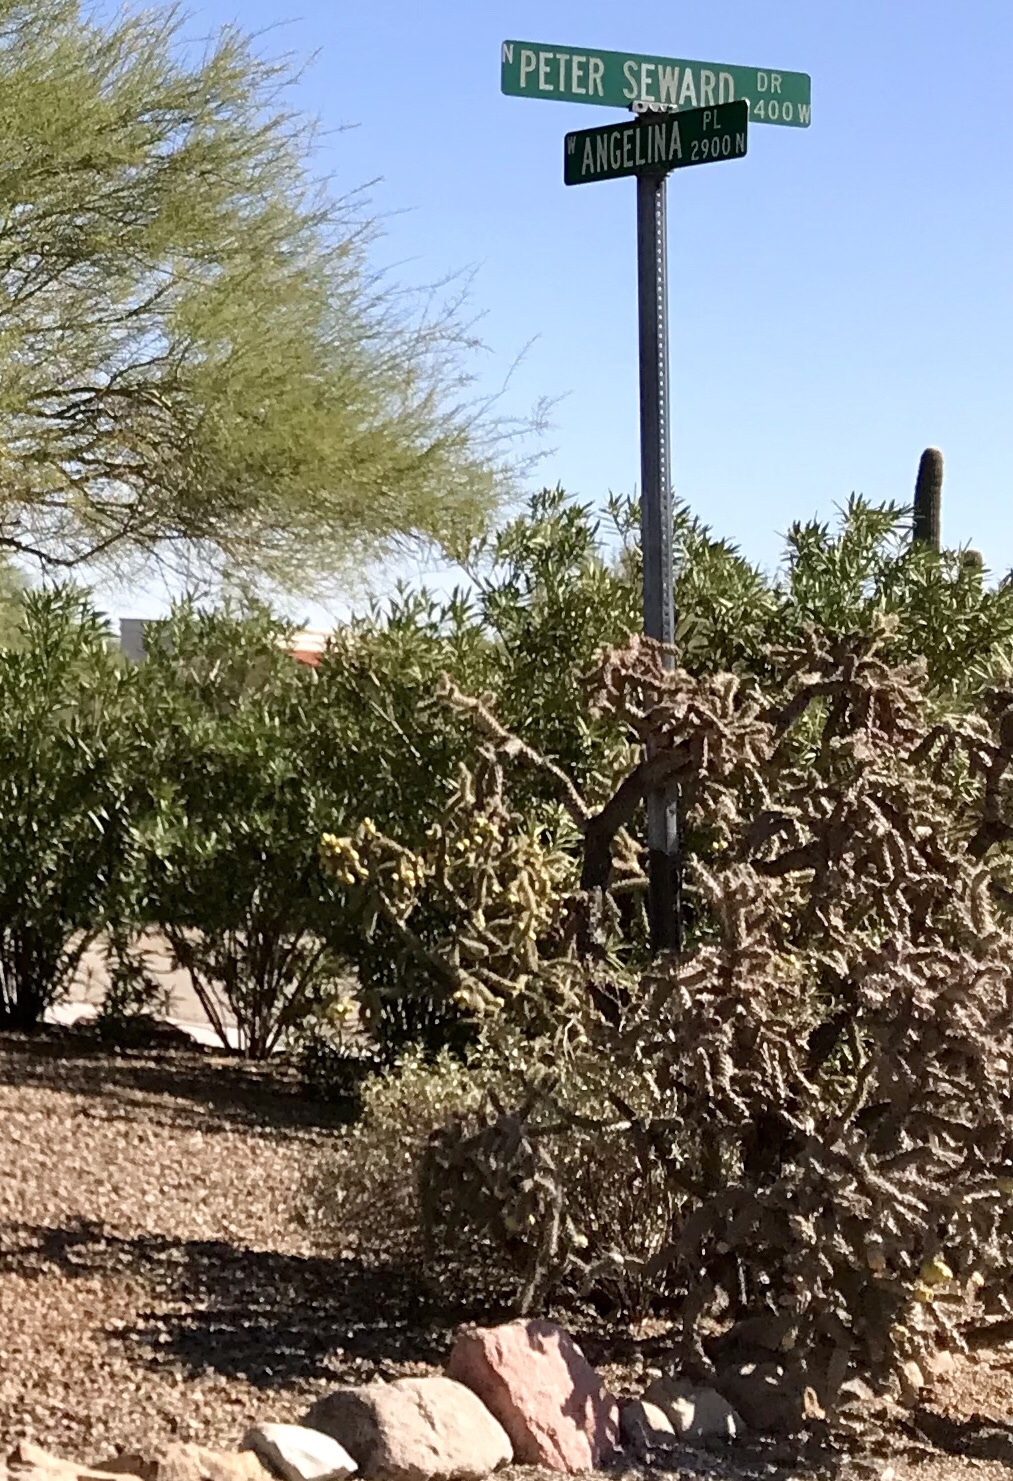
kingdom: Plantae
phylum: Tracheophyta
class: Magnoliopsida
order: Caryophyllales
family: Cactaceae
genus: Cylindropuntia
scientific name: Cylindropuntia thurberi
